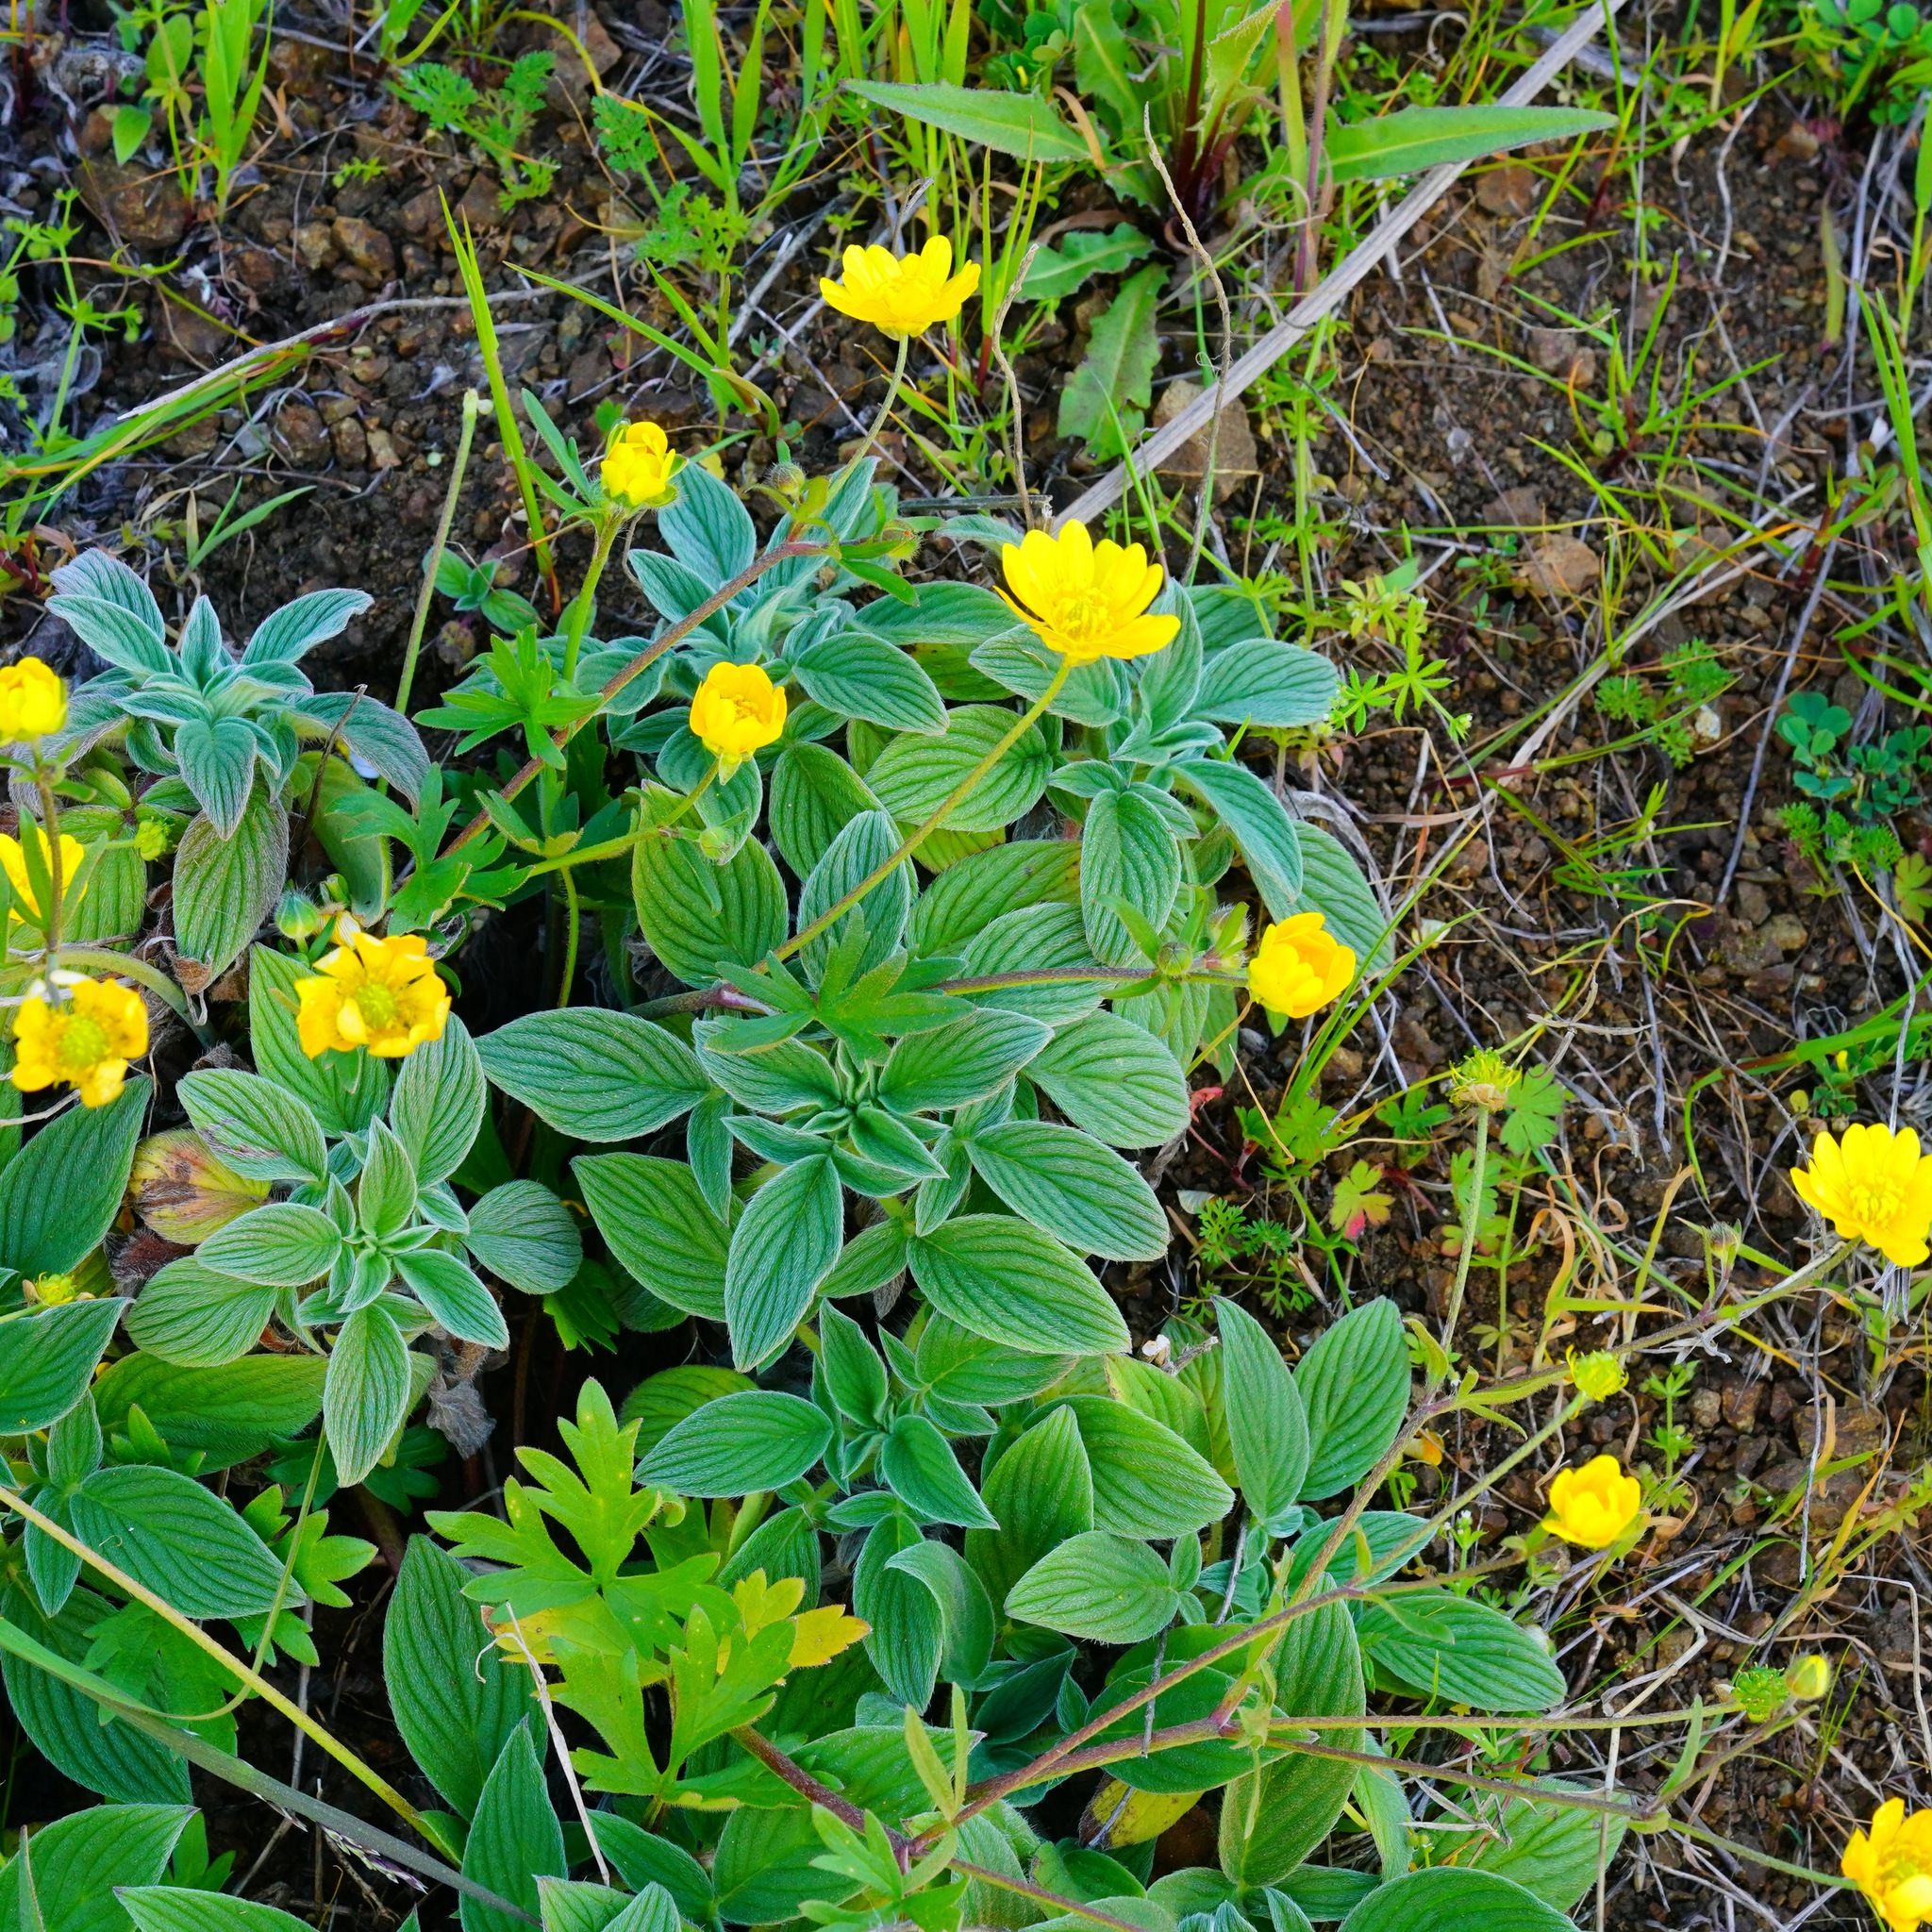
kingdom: Plantae
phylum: Tracheophyta
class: Magnoliopsida
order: Ranunculales
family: Ranunculaceae
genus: Ranunculus
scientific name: Ranunculus californicus
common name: California buttercup
